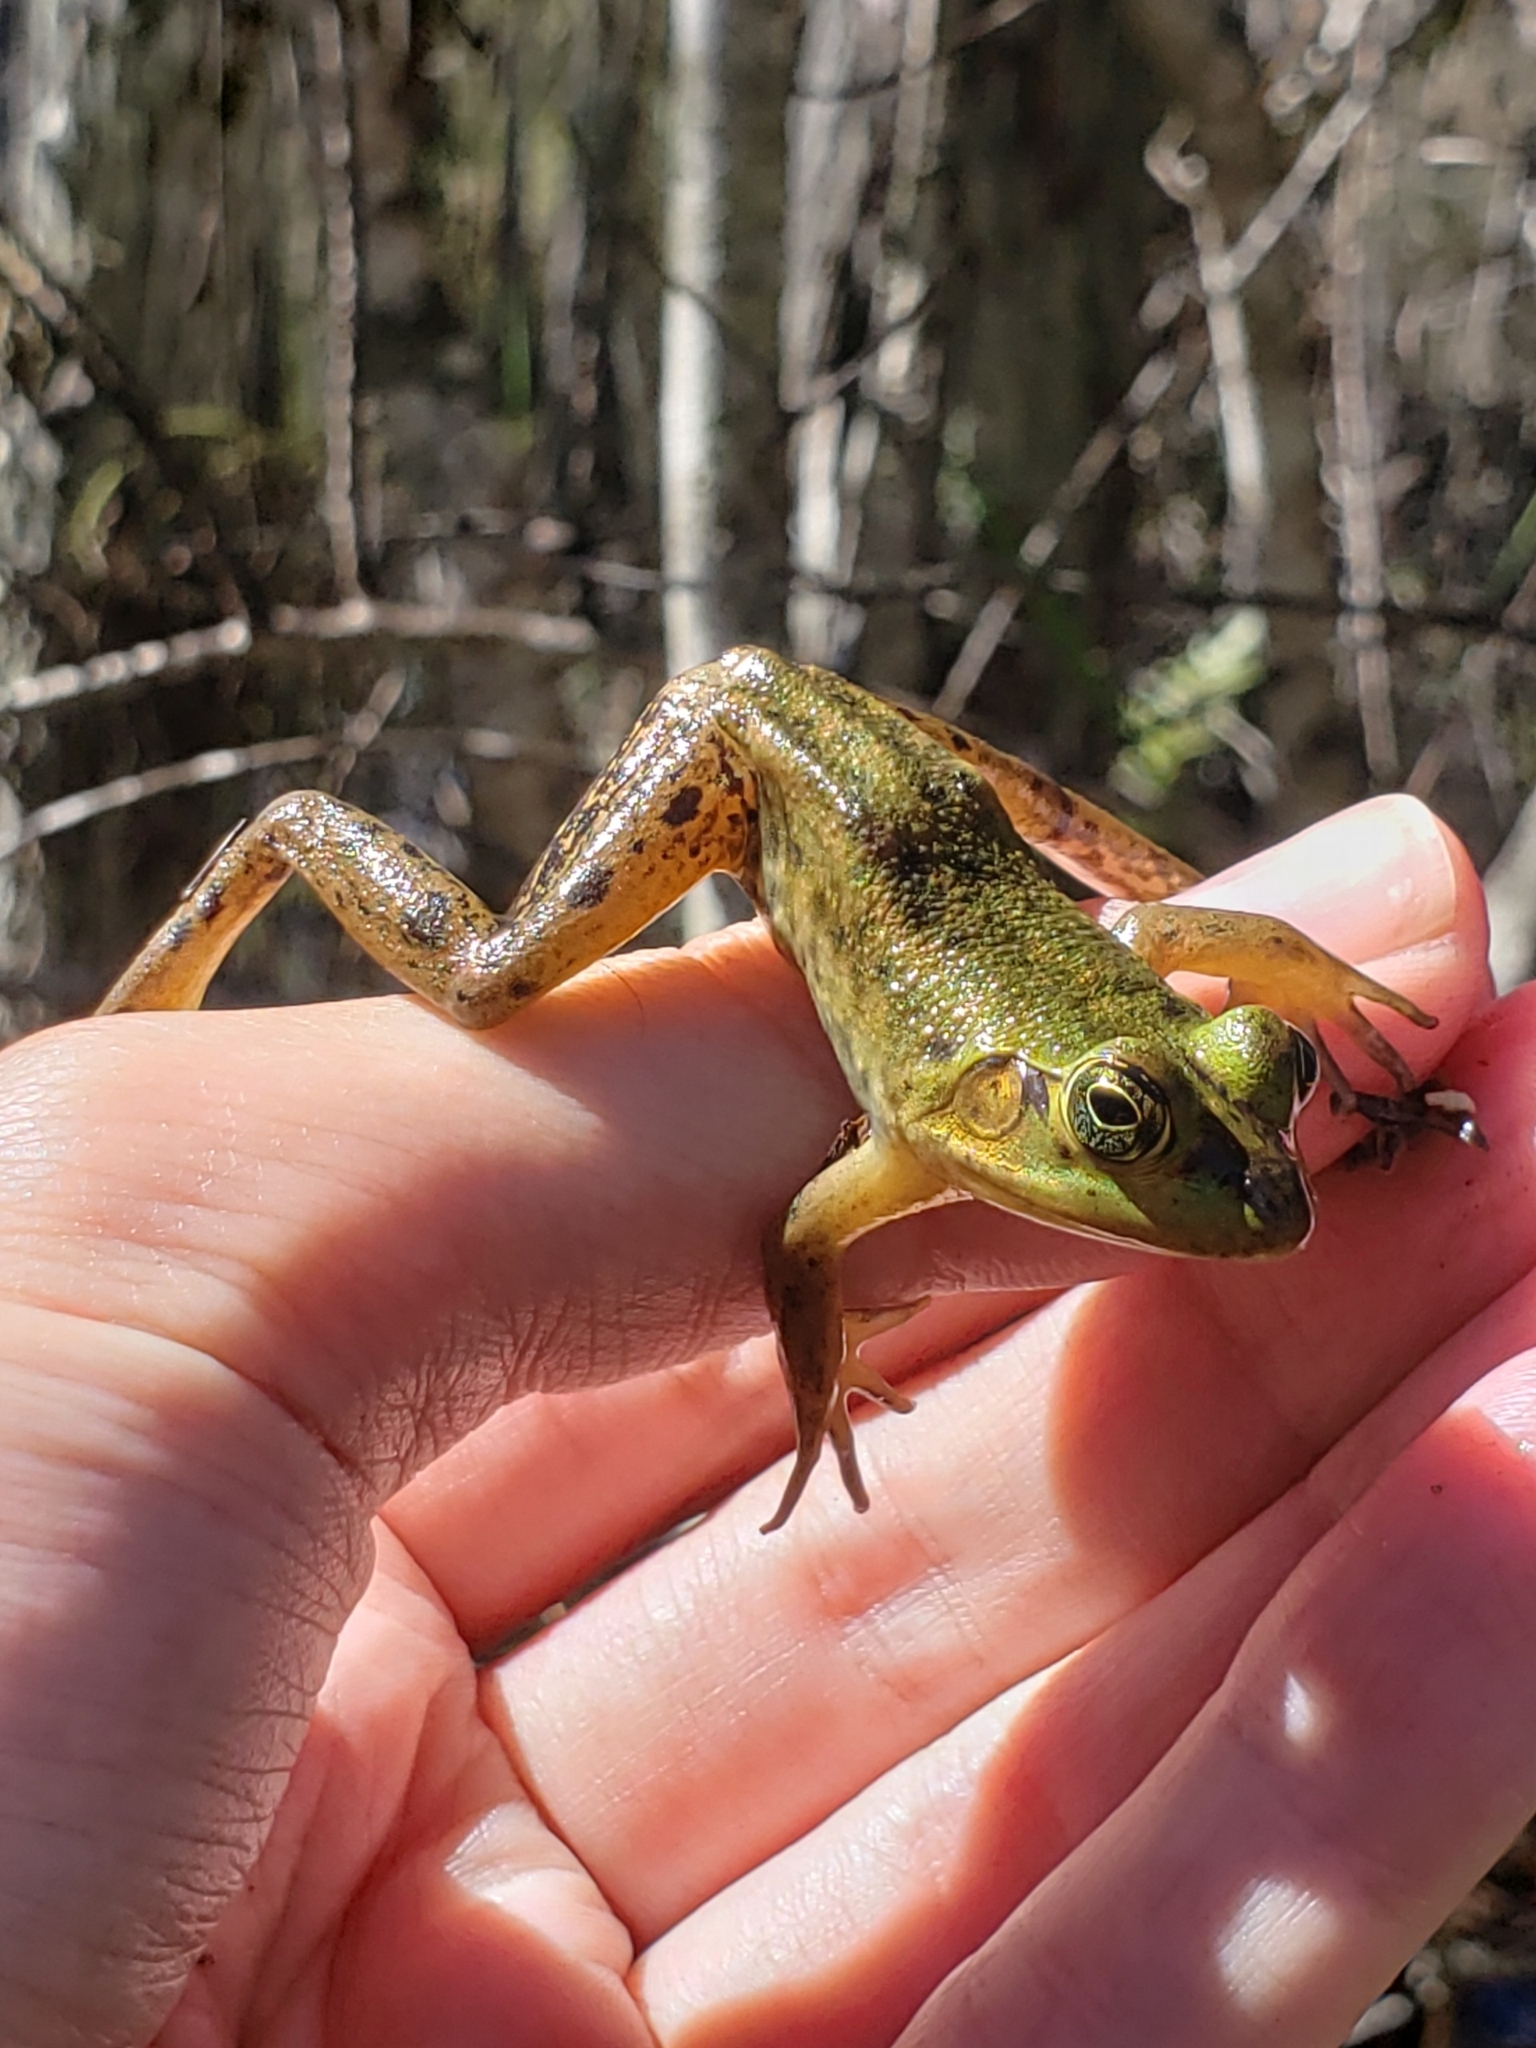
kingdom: Animalia
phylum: Chordata
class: Amphibia
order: Anura
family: Ranidae
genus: Lithobates
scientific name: Lithobates grylio
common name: Pig frog
